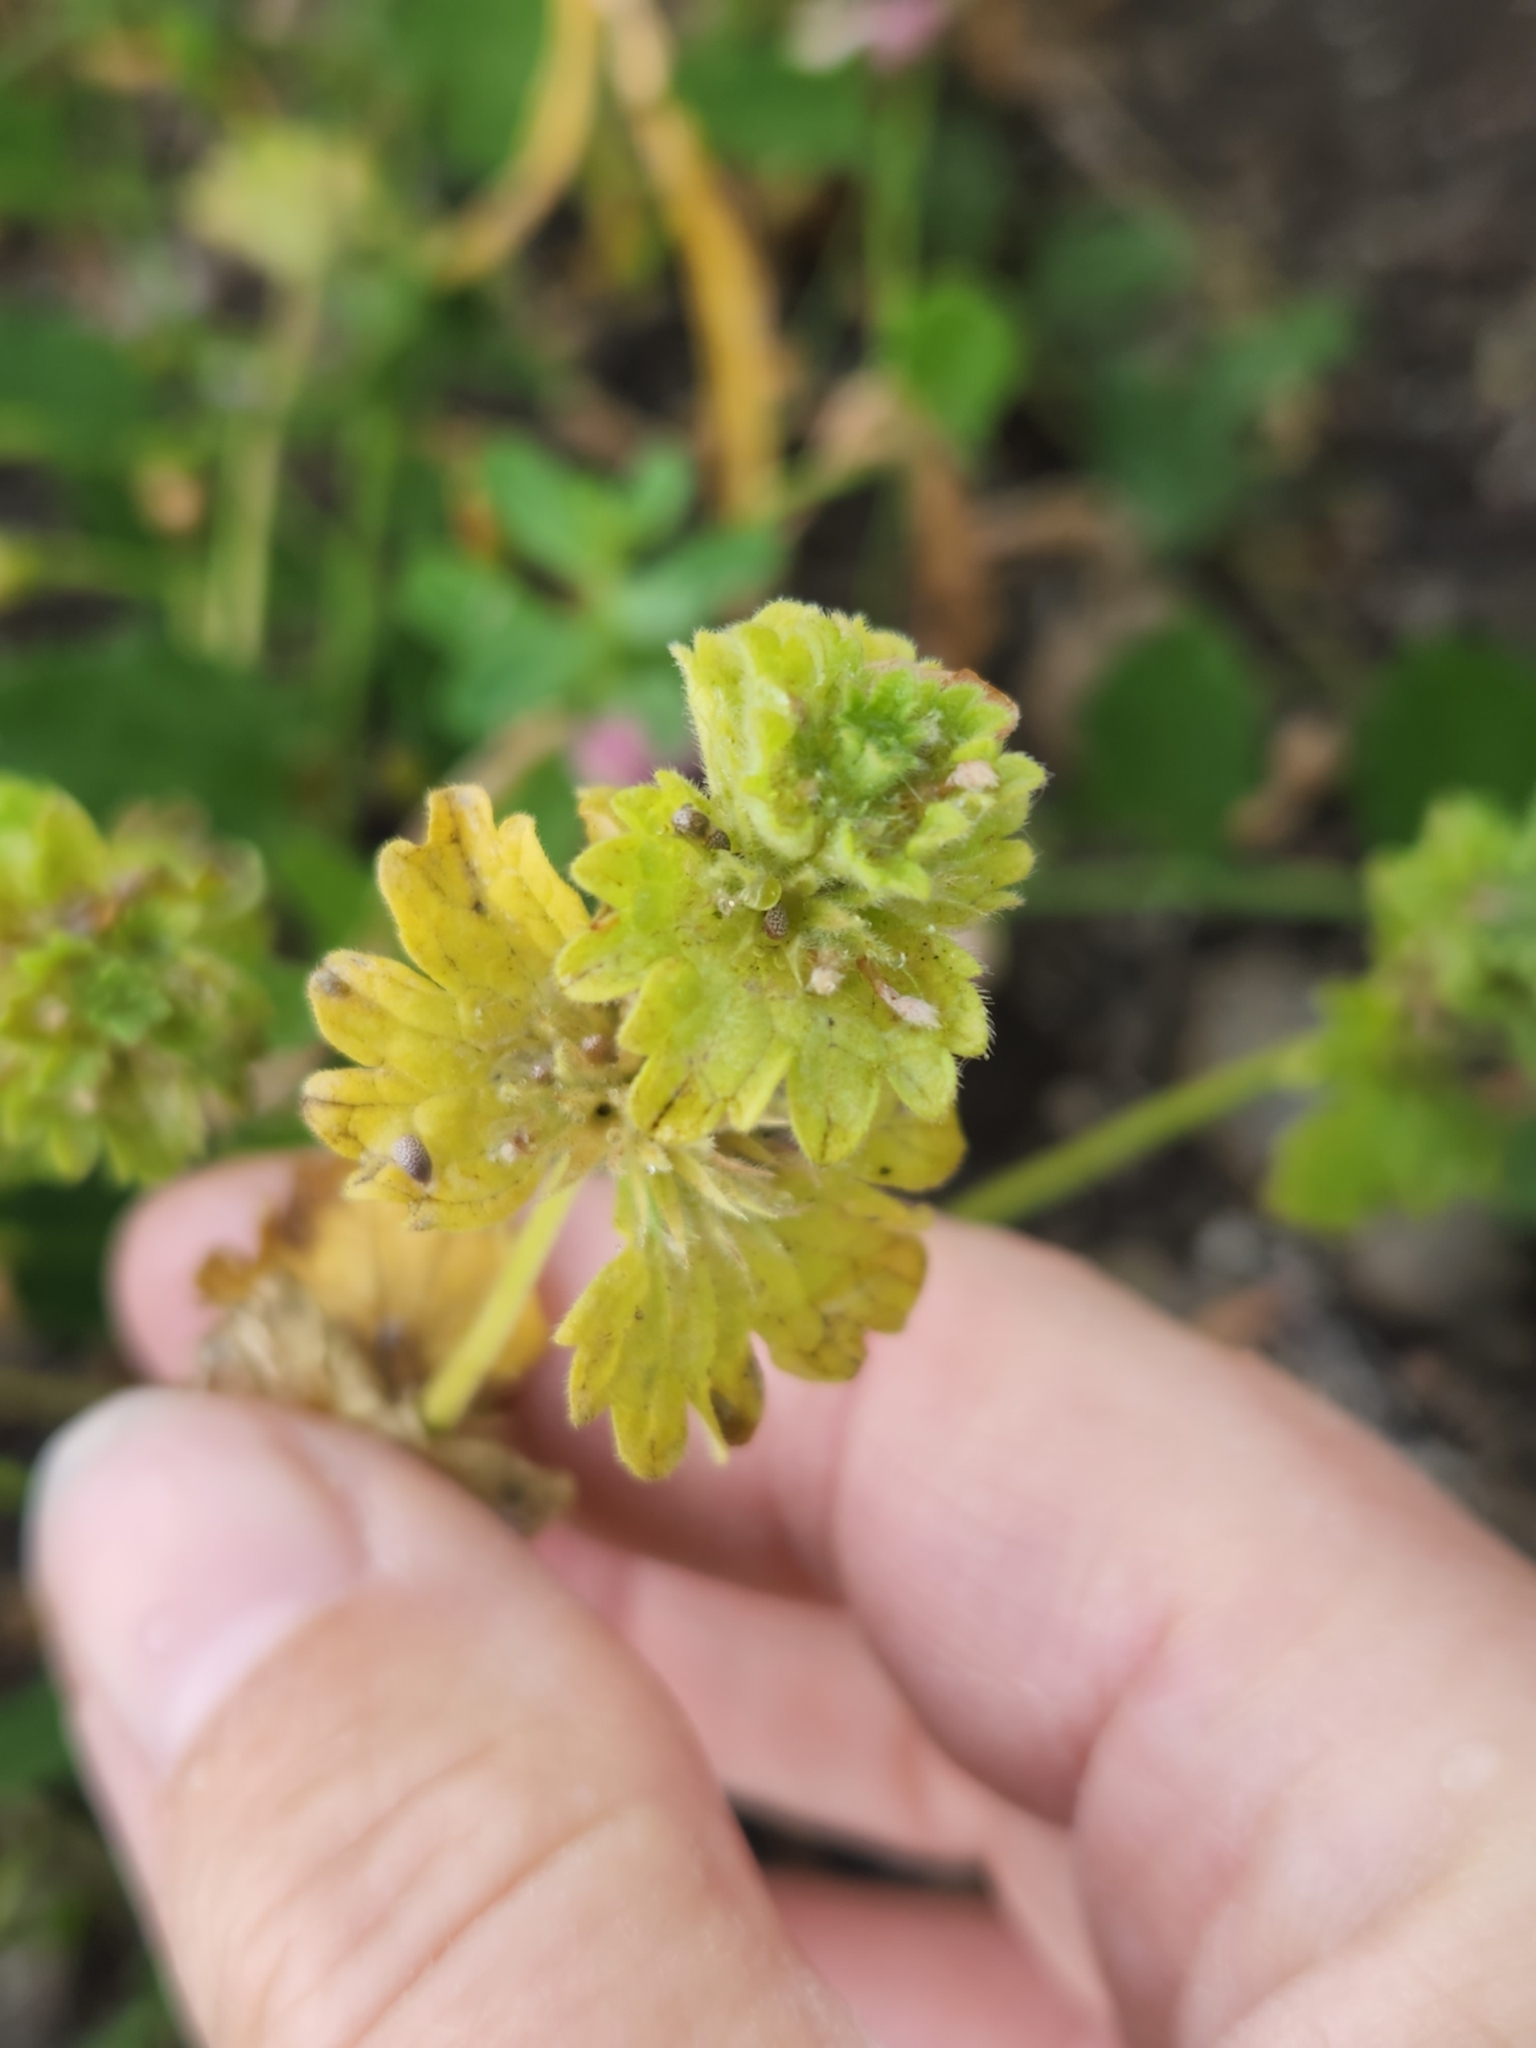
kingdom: Plantae
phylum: Tracheophyta
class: Magnoliopsida
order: Lamiales
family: Lamiaceae
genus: Lamium
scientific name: Lamium amplexicaule
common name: Henbit dead-nettle
